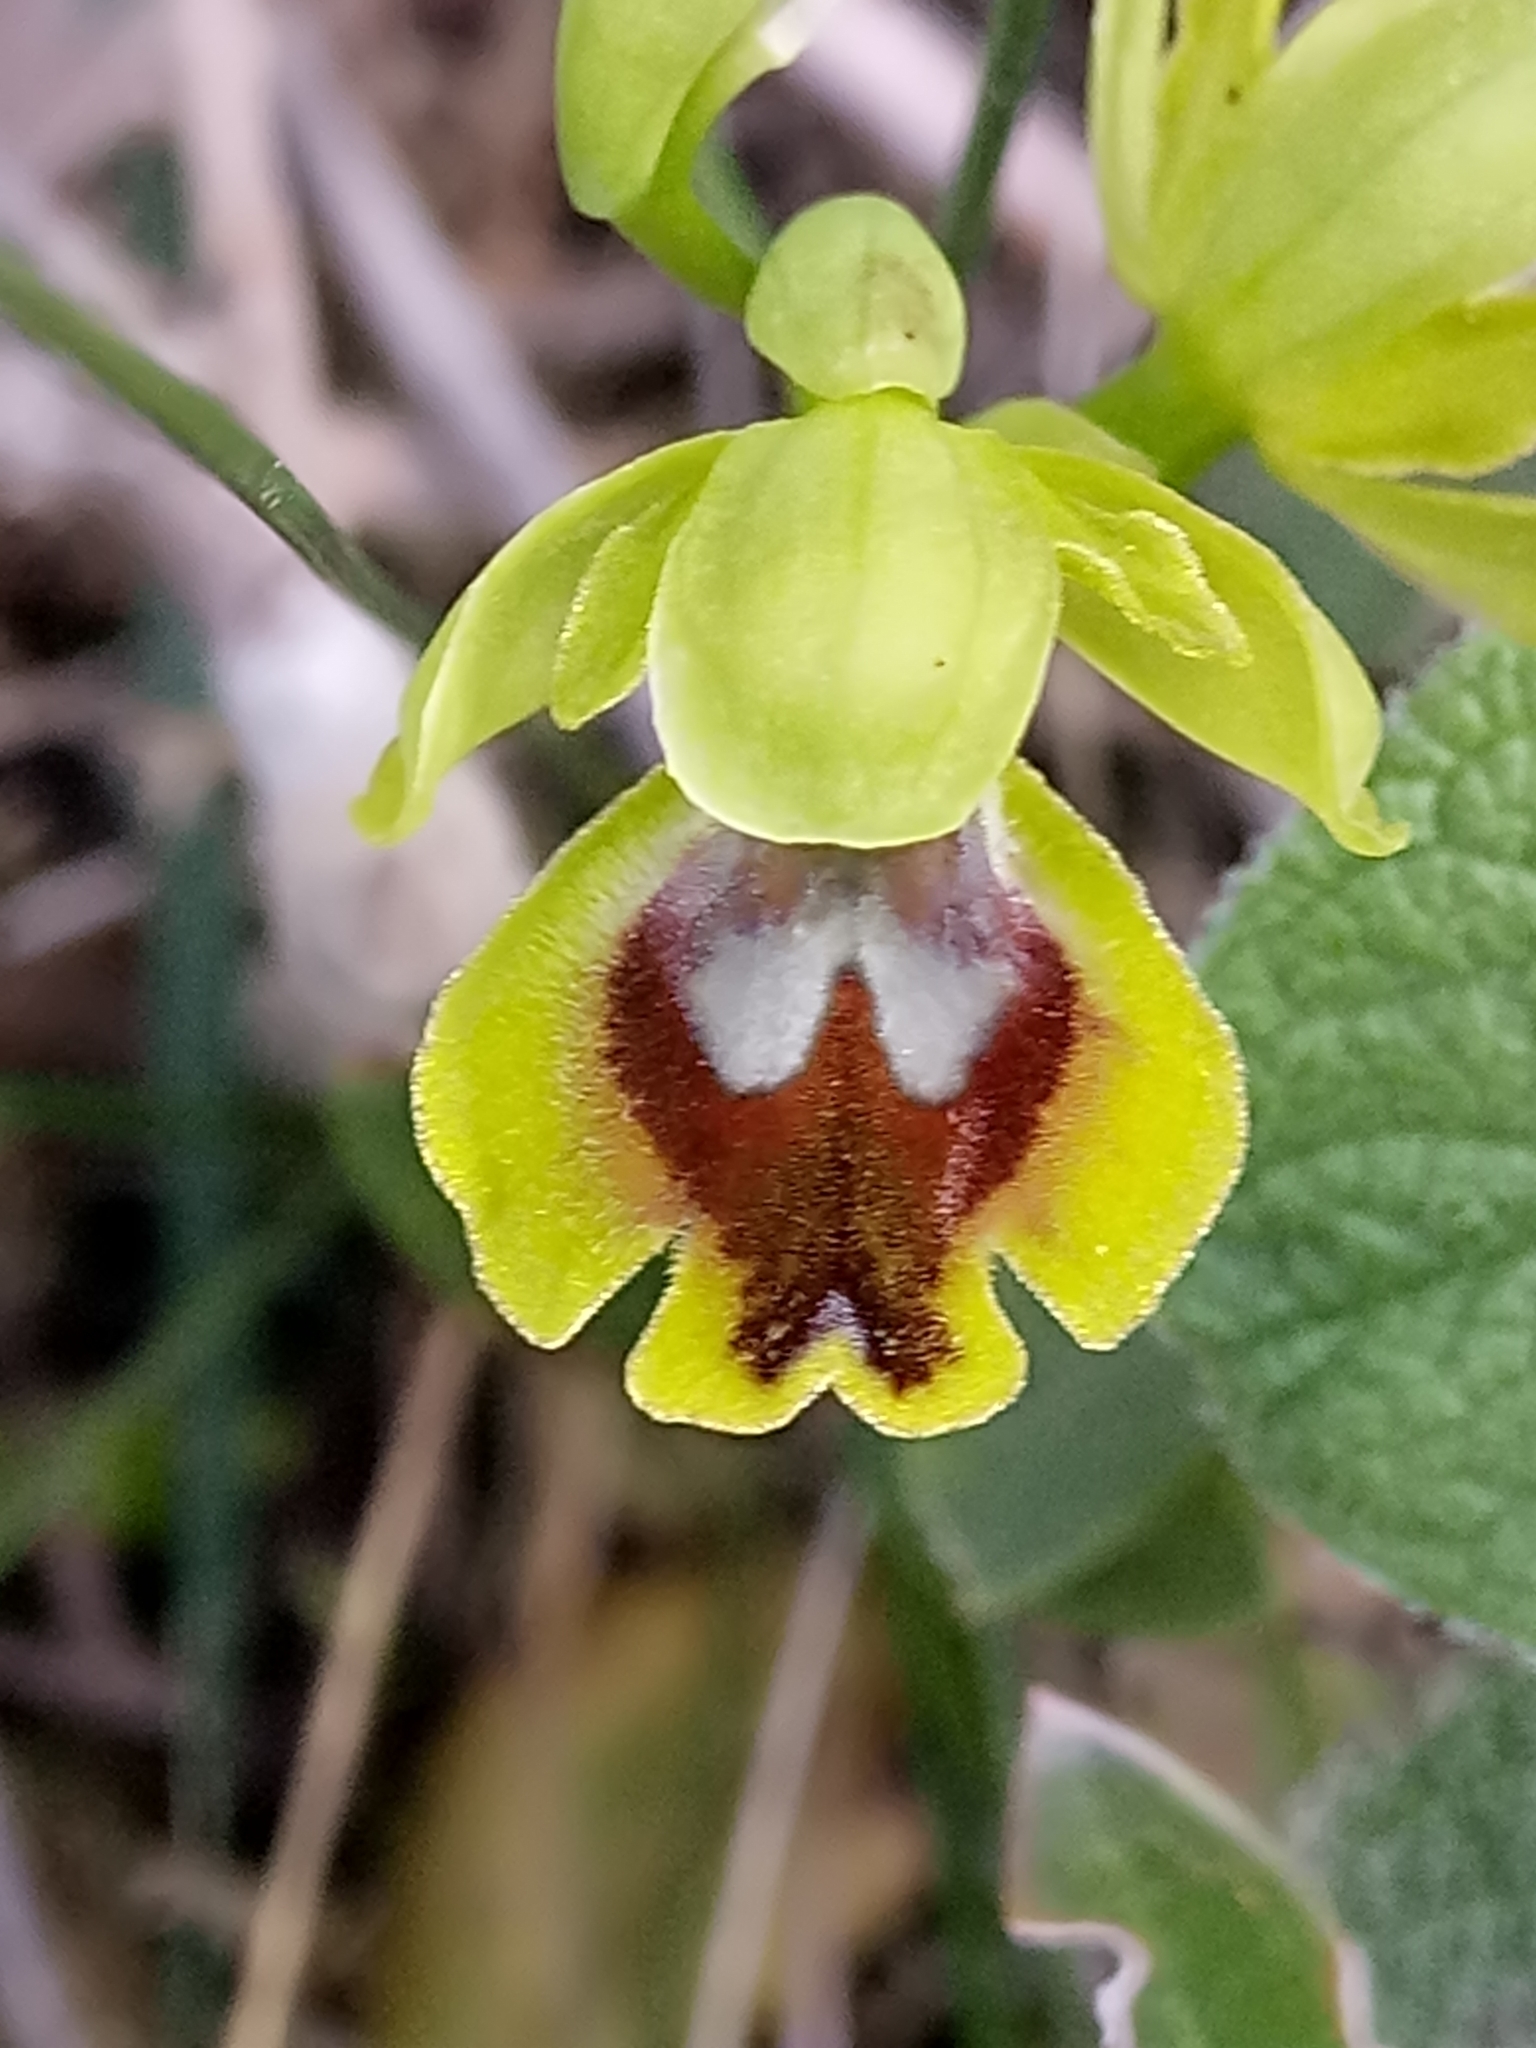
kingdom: Plantae
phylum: Tracheophyta
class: Liliopsida
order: Asparagales
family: Orchidaceae
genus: Ophrys
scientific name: Ophrys battandieri
